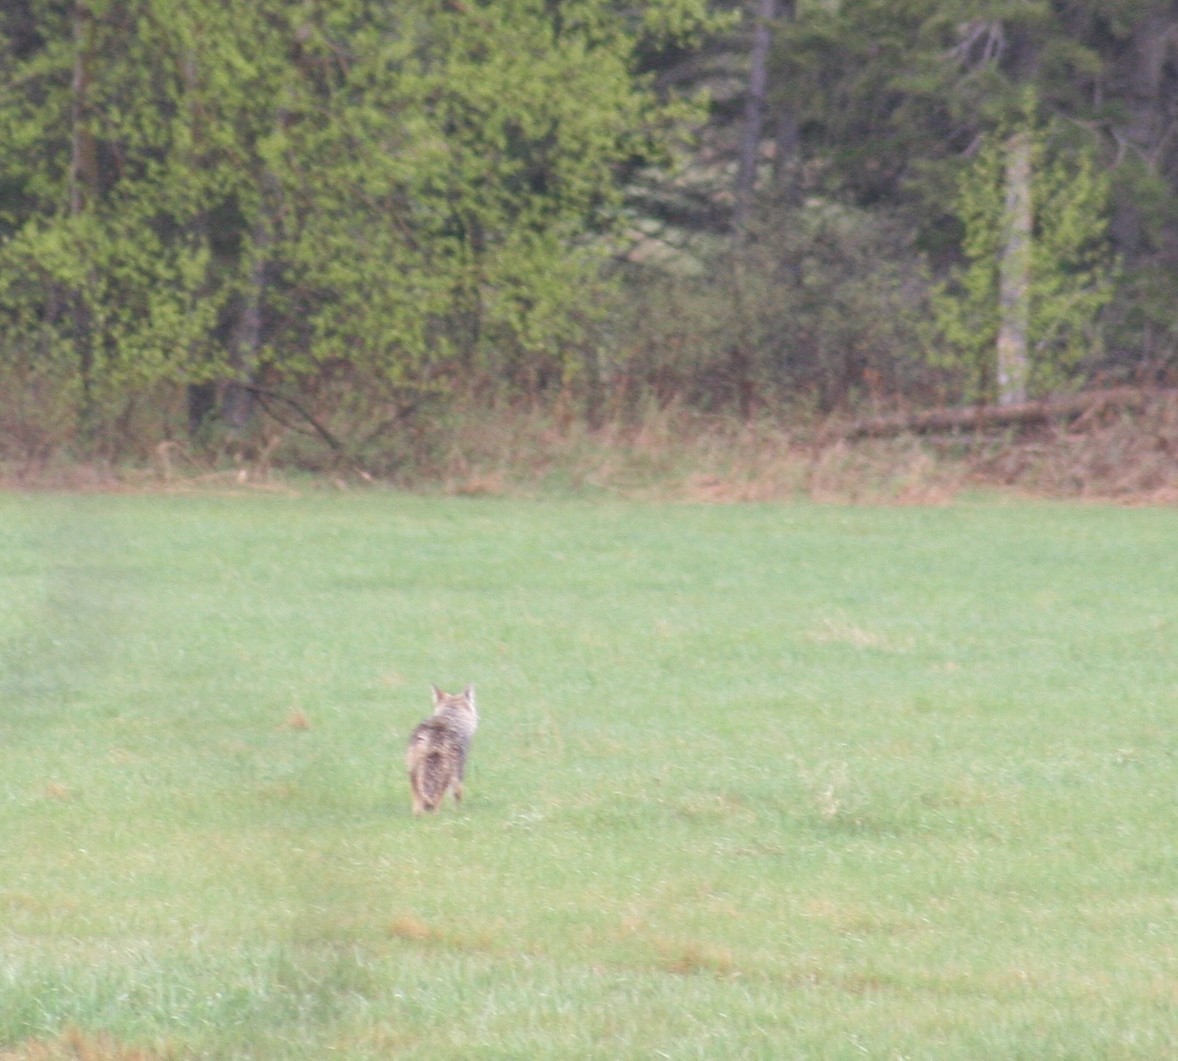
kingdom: Animalia
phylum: Chordata
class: Mammalia
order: Carnivora
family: Canidae
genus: Canis
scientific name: Canis latrans
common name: Coyote
